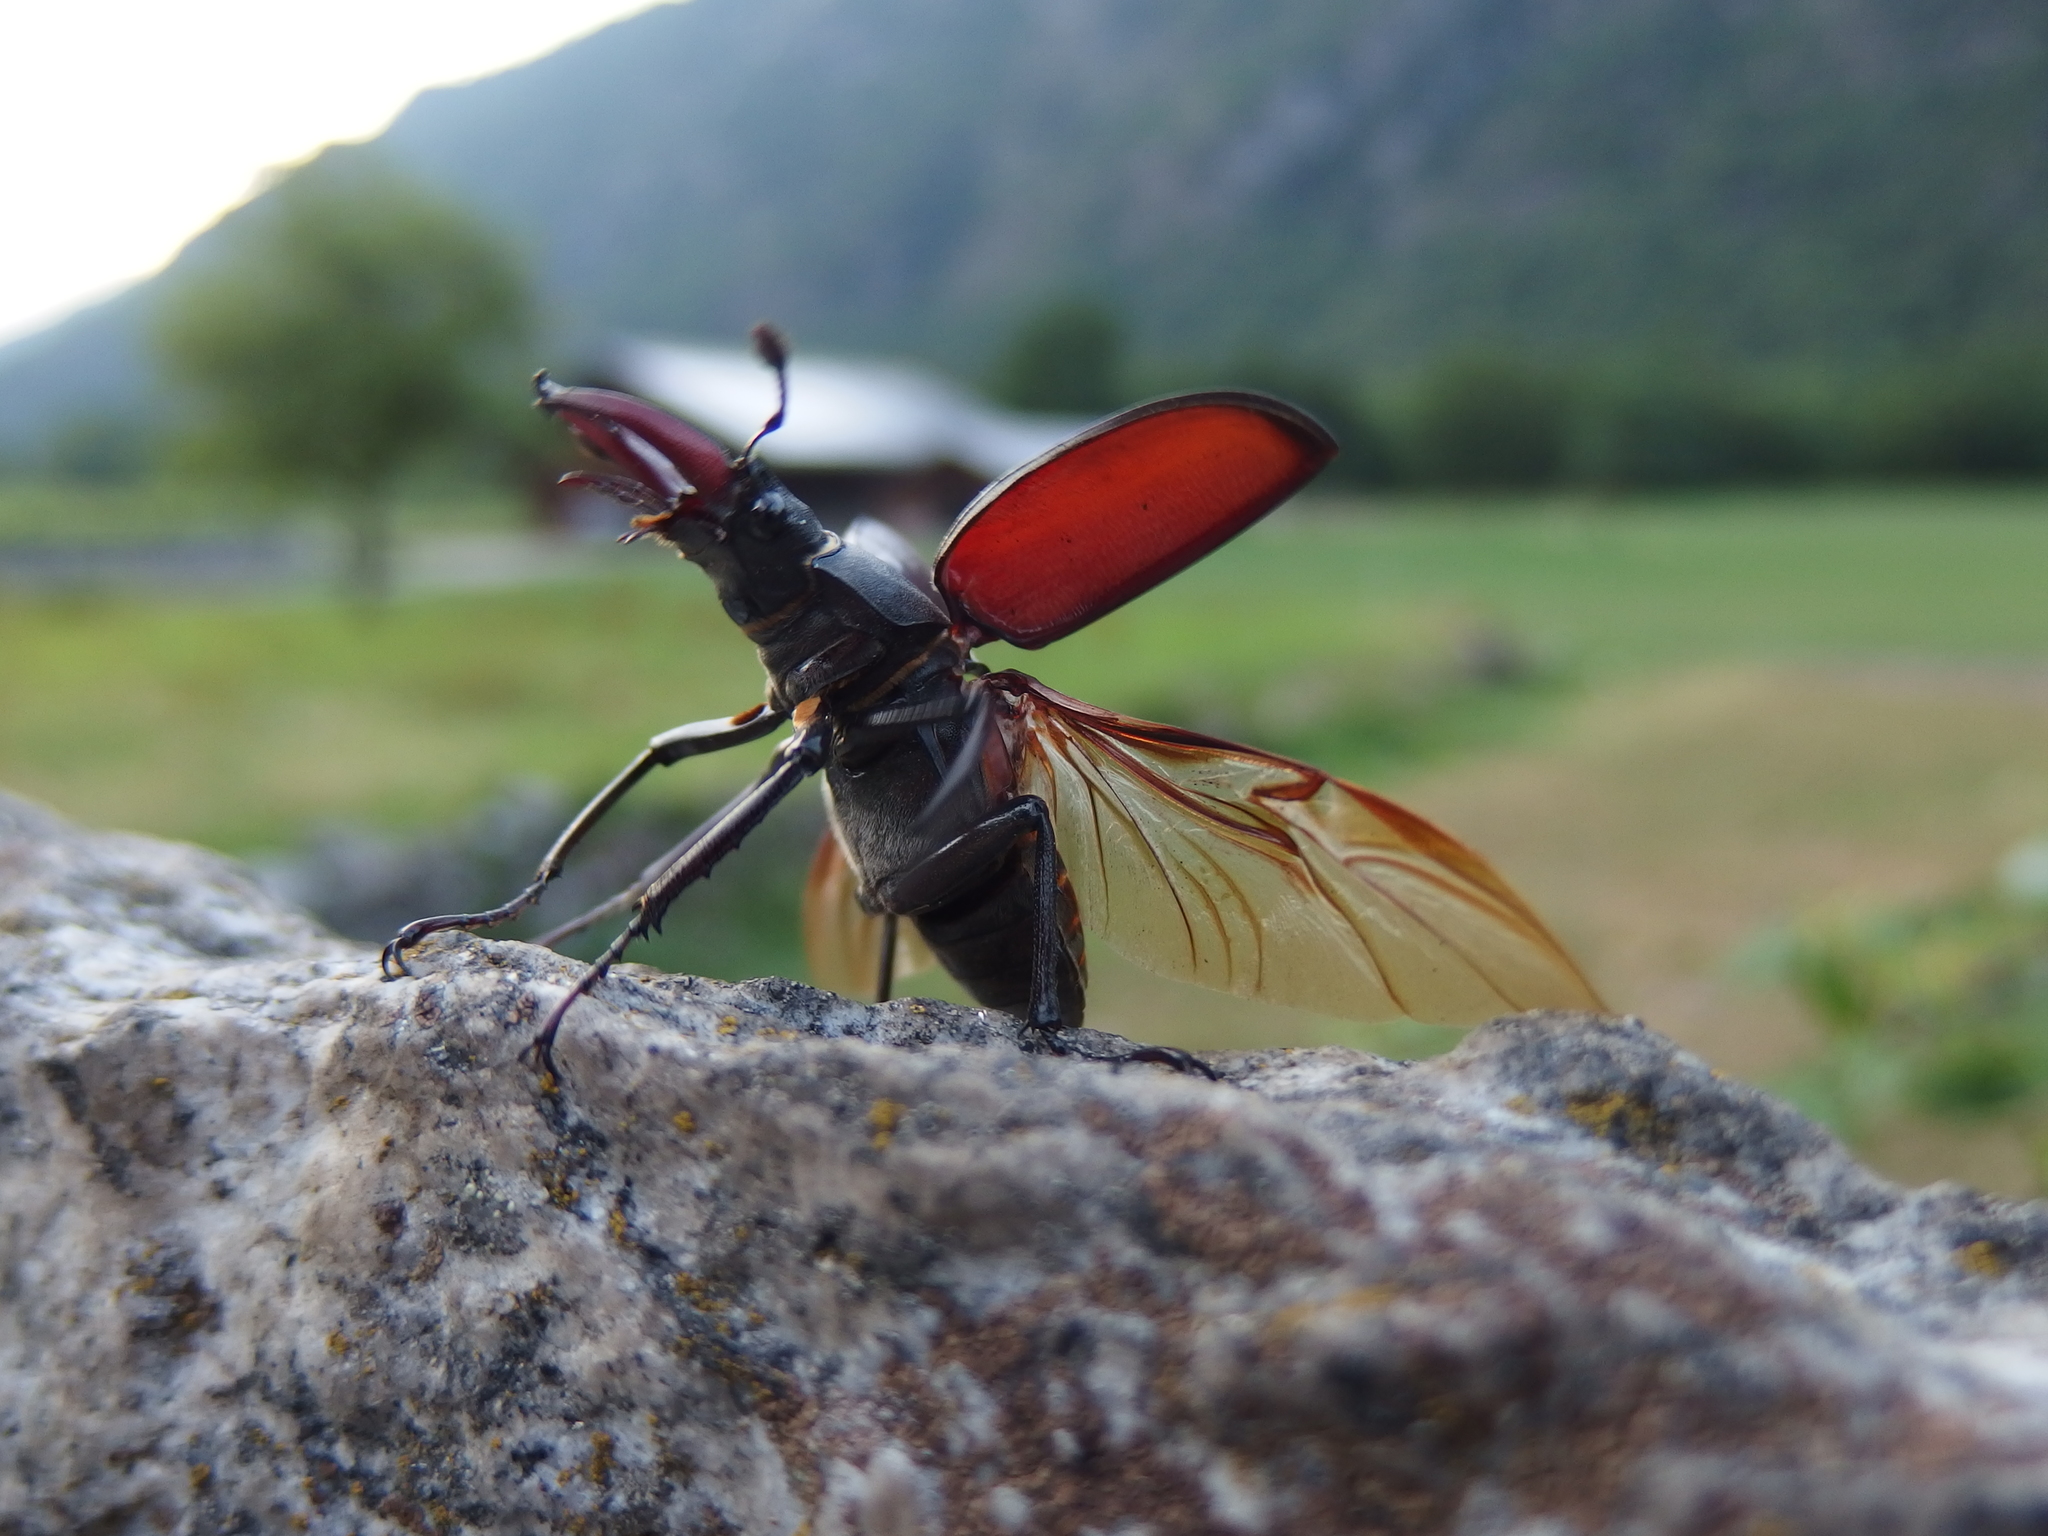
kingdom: Animalia
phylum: Arthropoda
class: Insecta
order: Coleoptera
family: Lucanidae
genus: Lucanus
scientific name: Lucanus cervus
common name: Stag beetle
